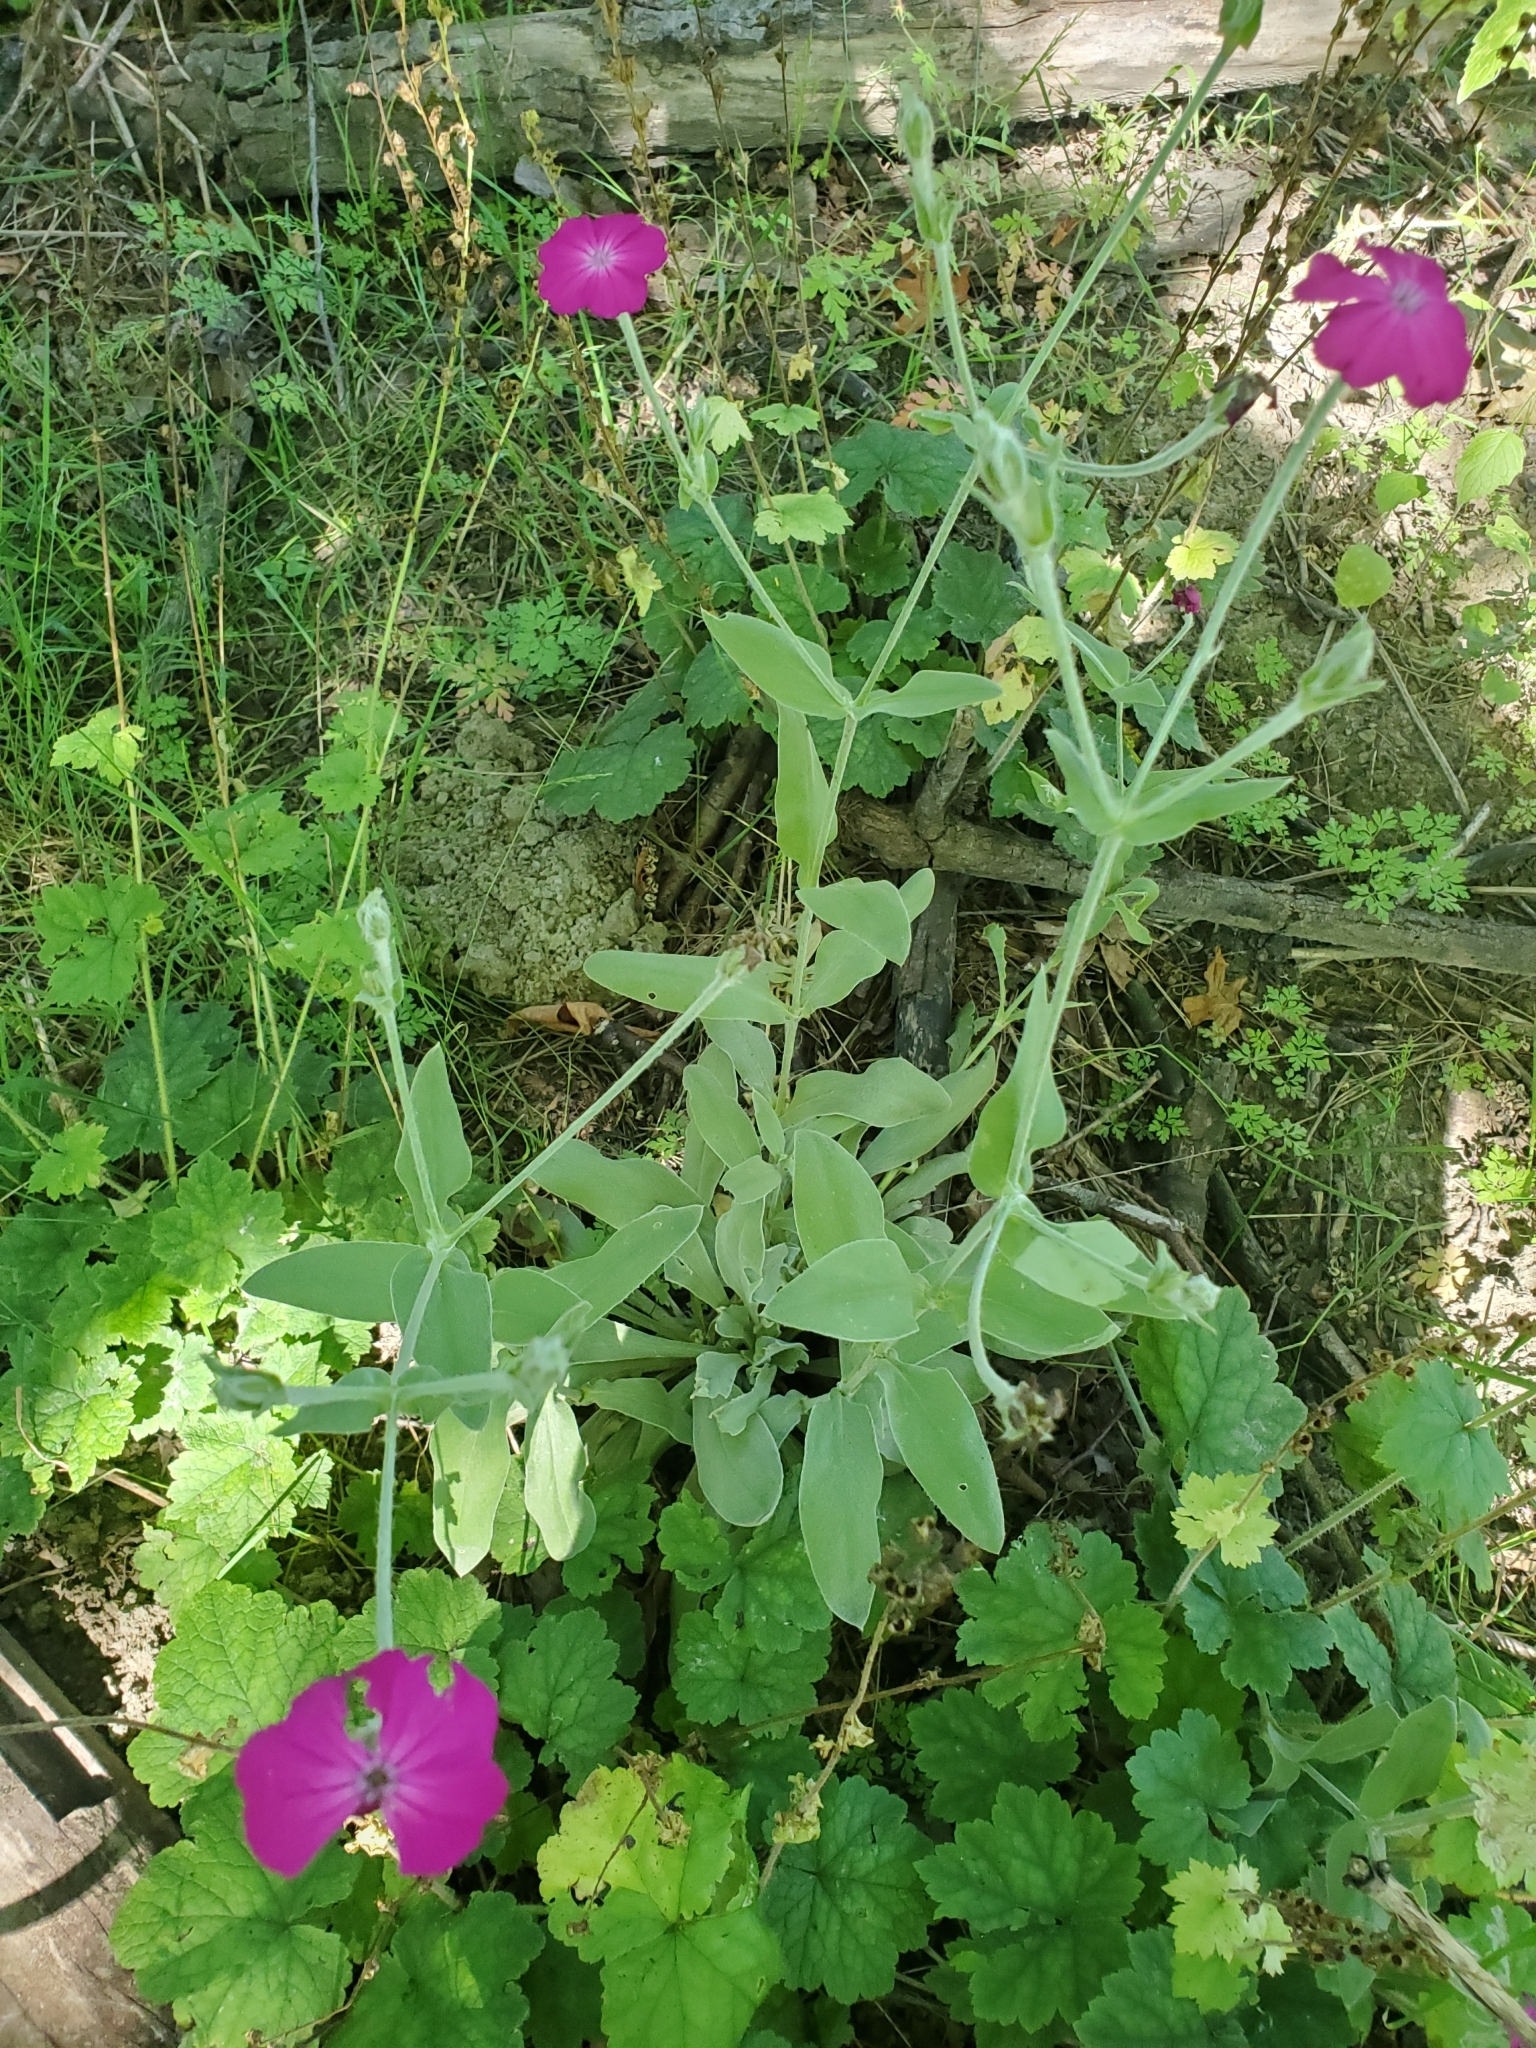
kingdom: Plantae
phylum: Tracheophyta
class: Magnoliopsida
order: Caryophyllales
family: Caryophyllaceae
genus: Silene
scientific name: Silene coronaria
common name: Rose campion
